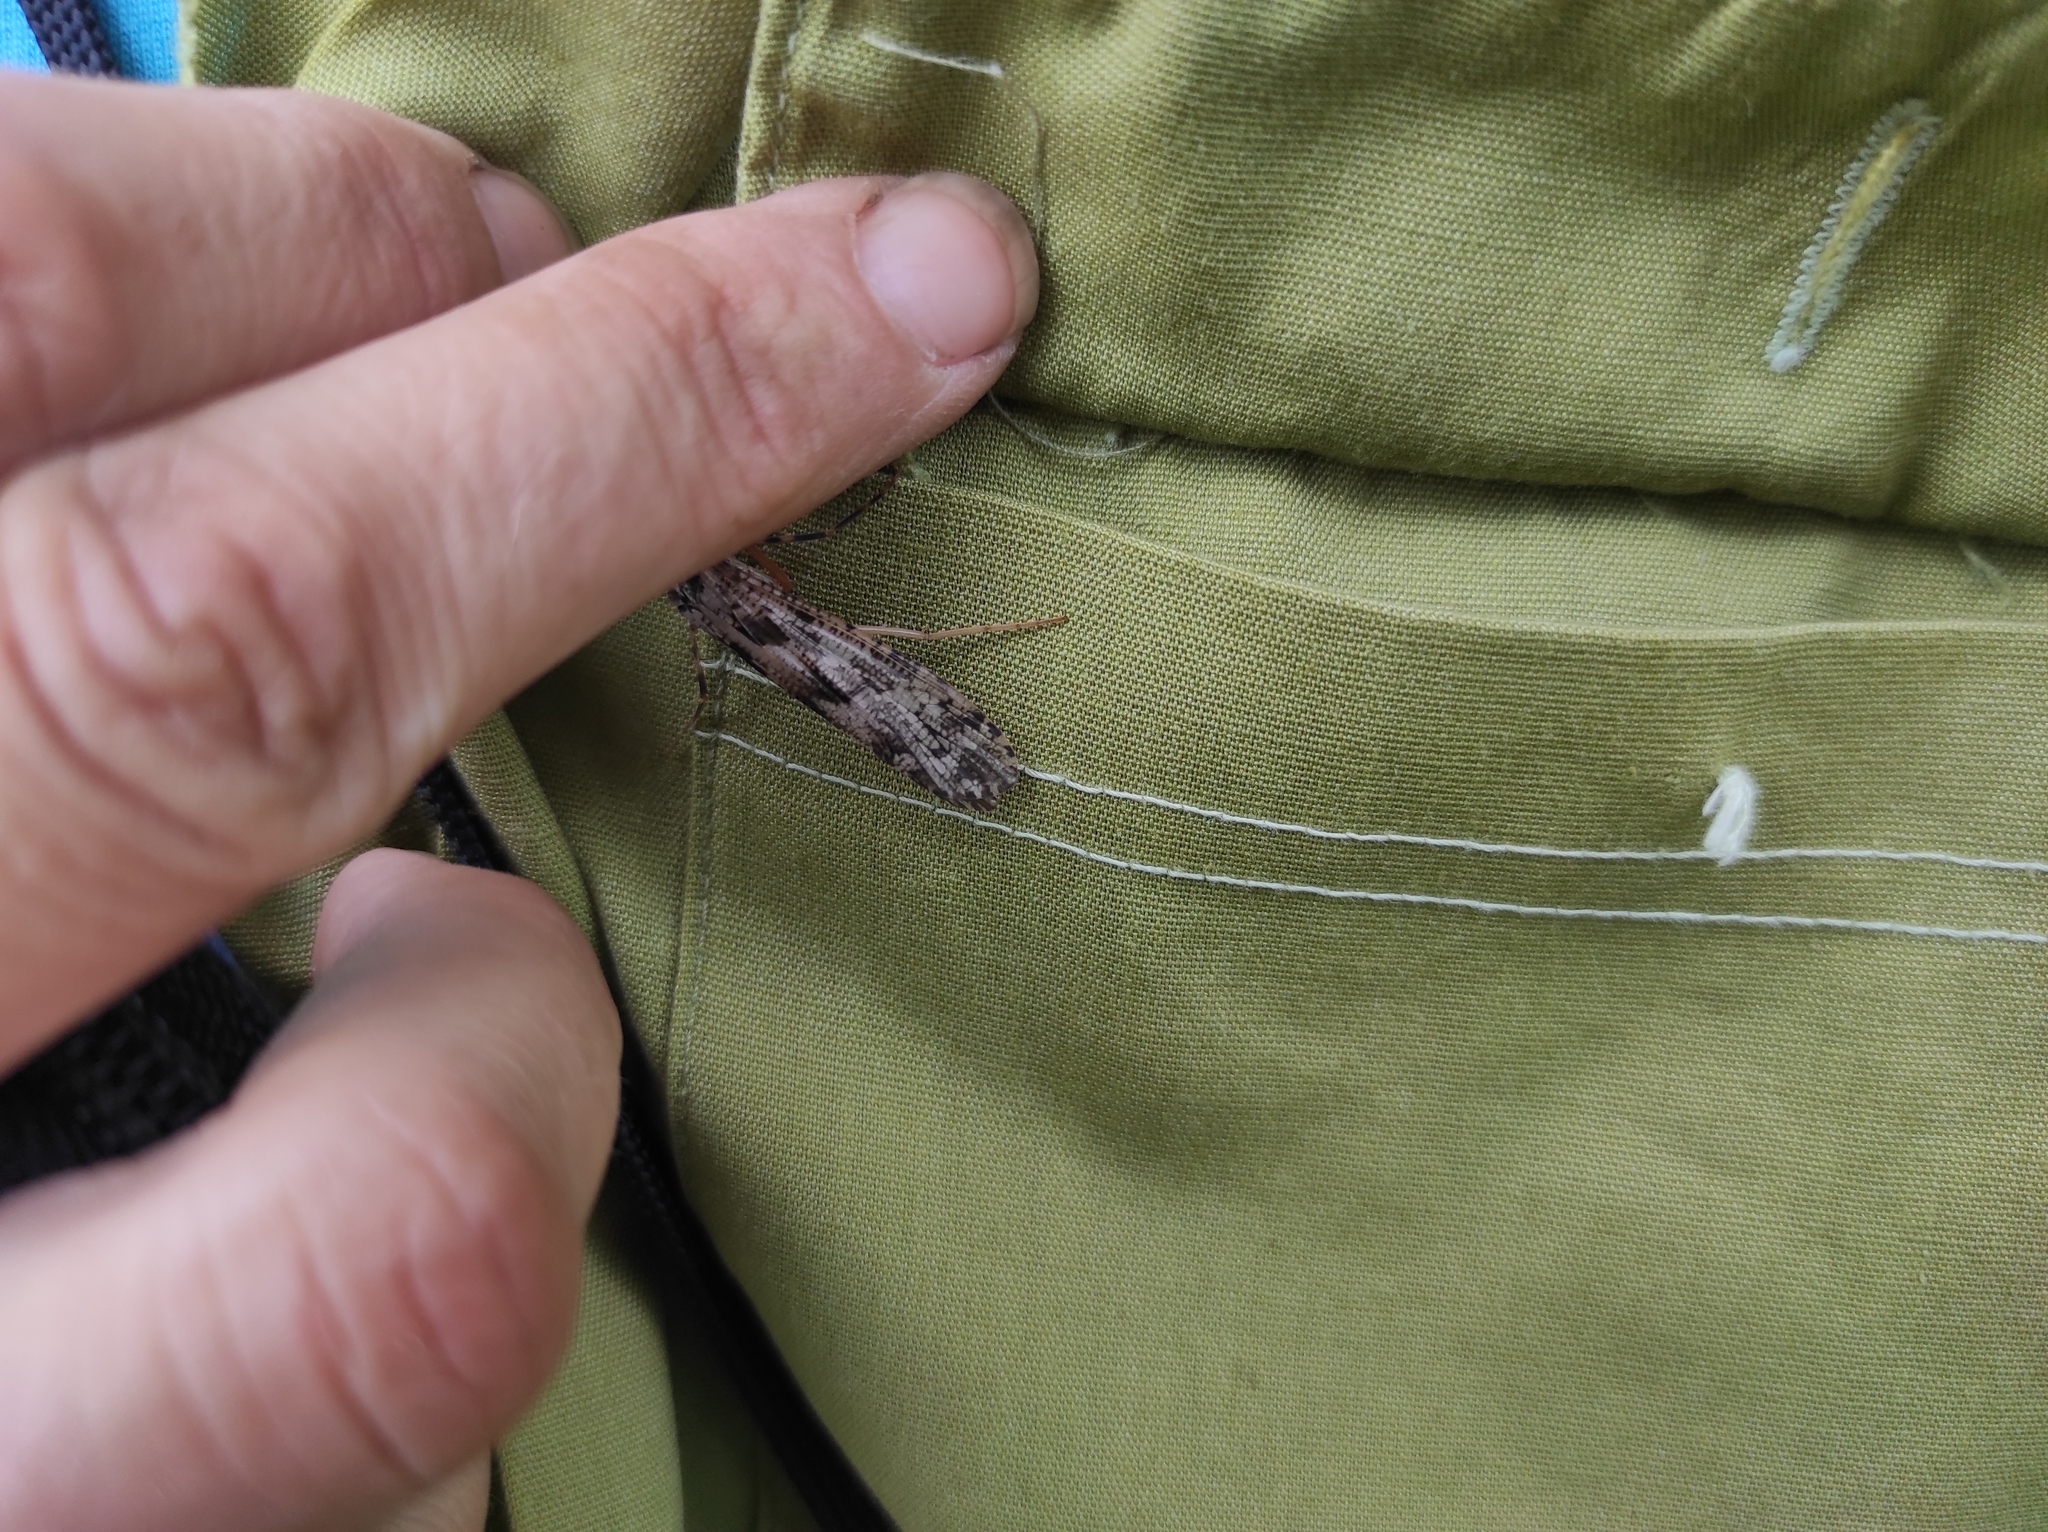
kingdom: Animalia
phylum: Arthropoda
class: Insecta
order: Trichoptera
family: Stenopsychidae
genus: Stenopsyche
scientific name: Stenopsyche marmorata
